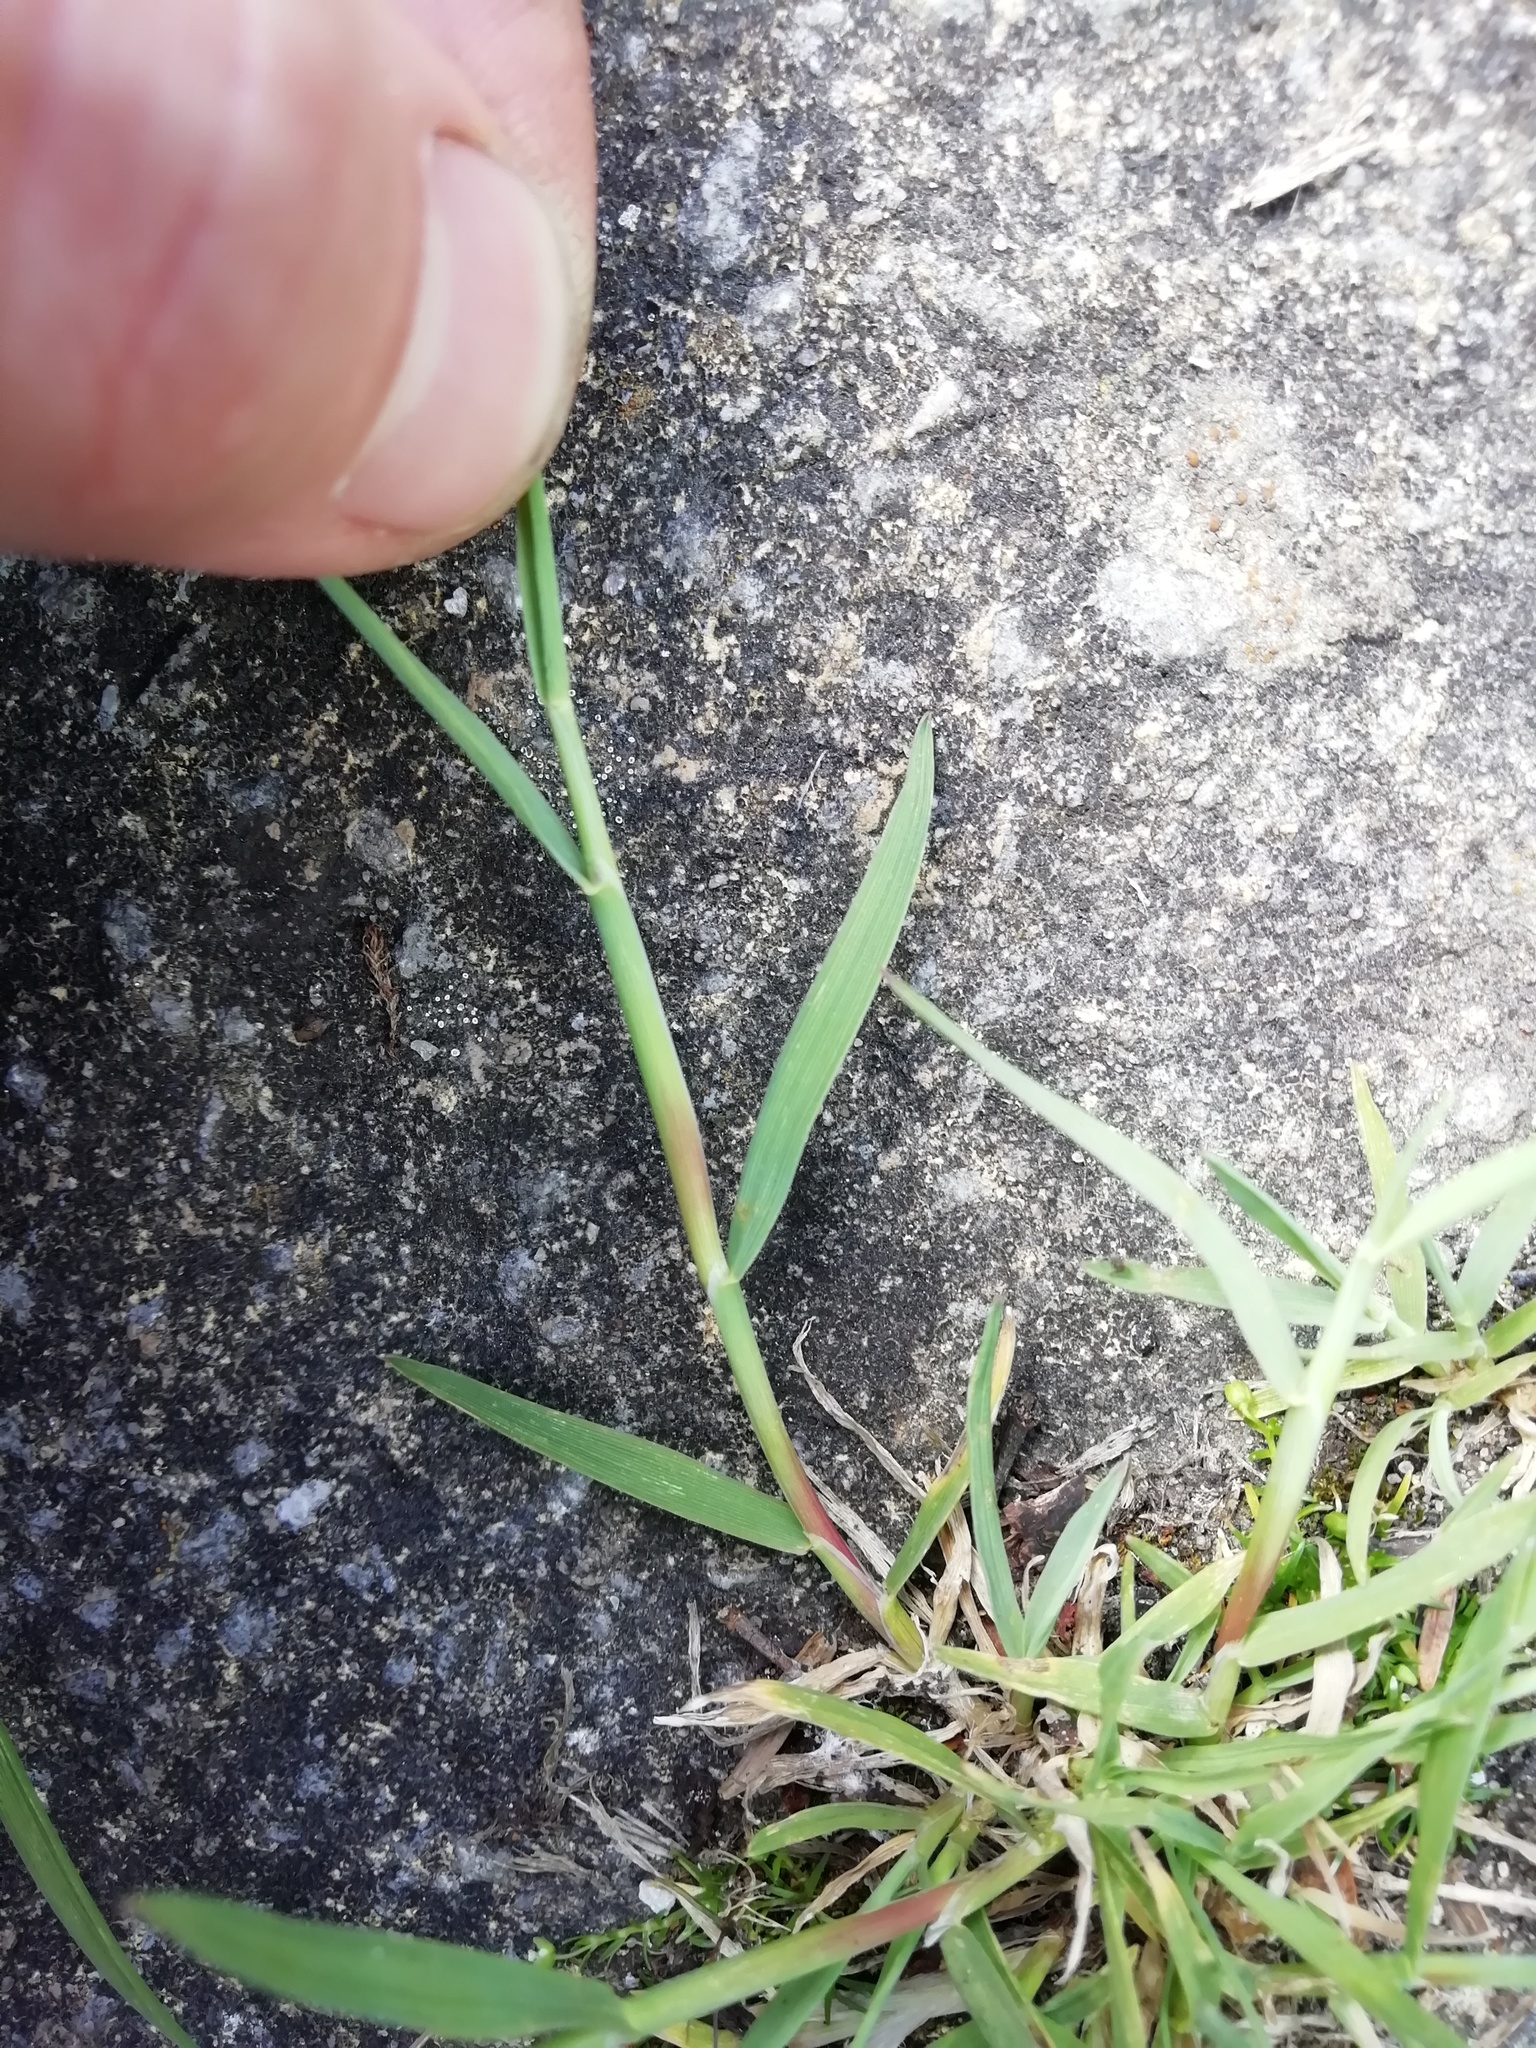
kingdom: Plantae
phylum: Tracheophyta
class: Liliopsida
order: Poales
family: Poaceae
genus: Holcus
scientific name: Holcus lanatus
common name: Yorkshire-fog
